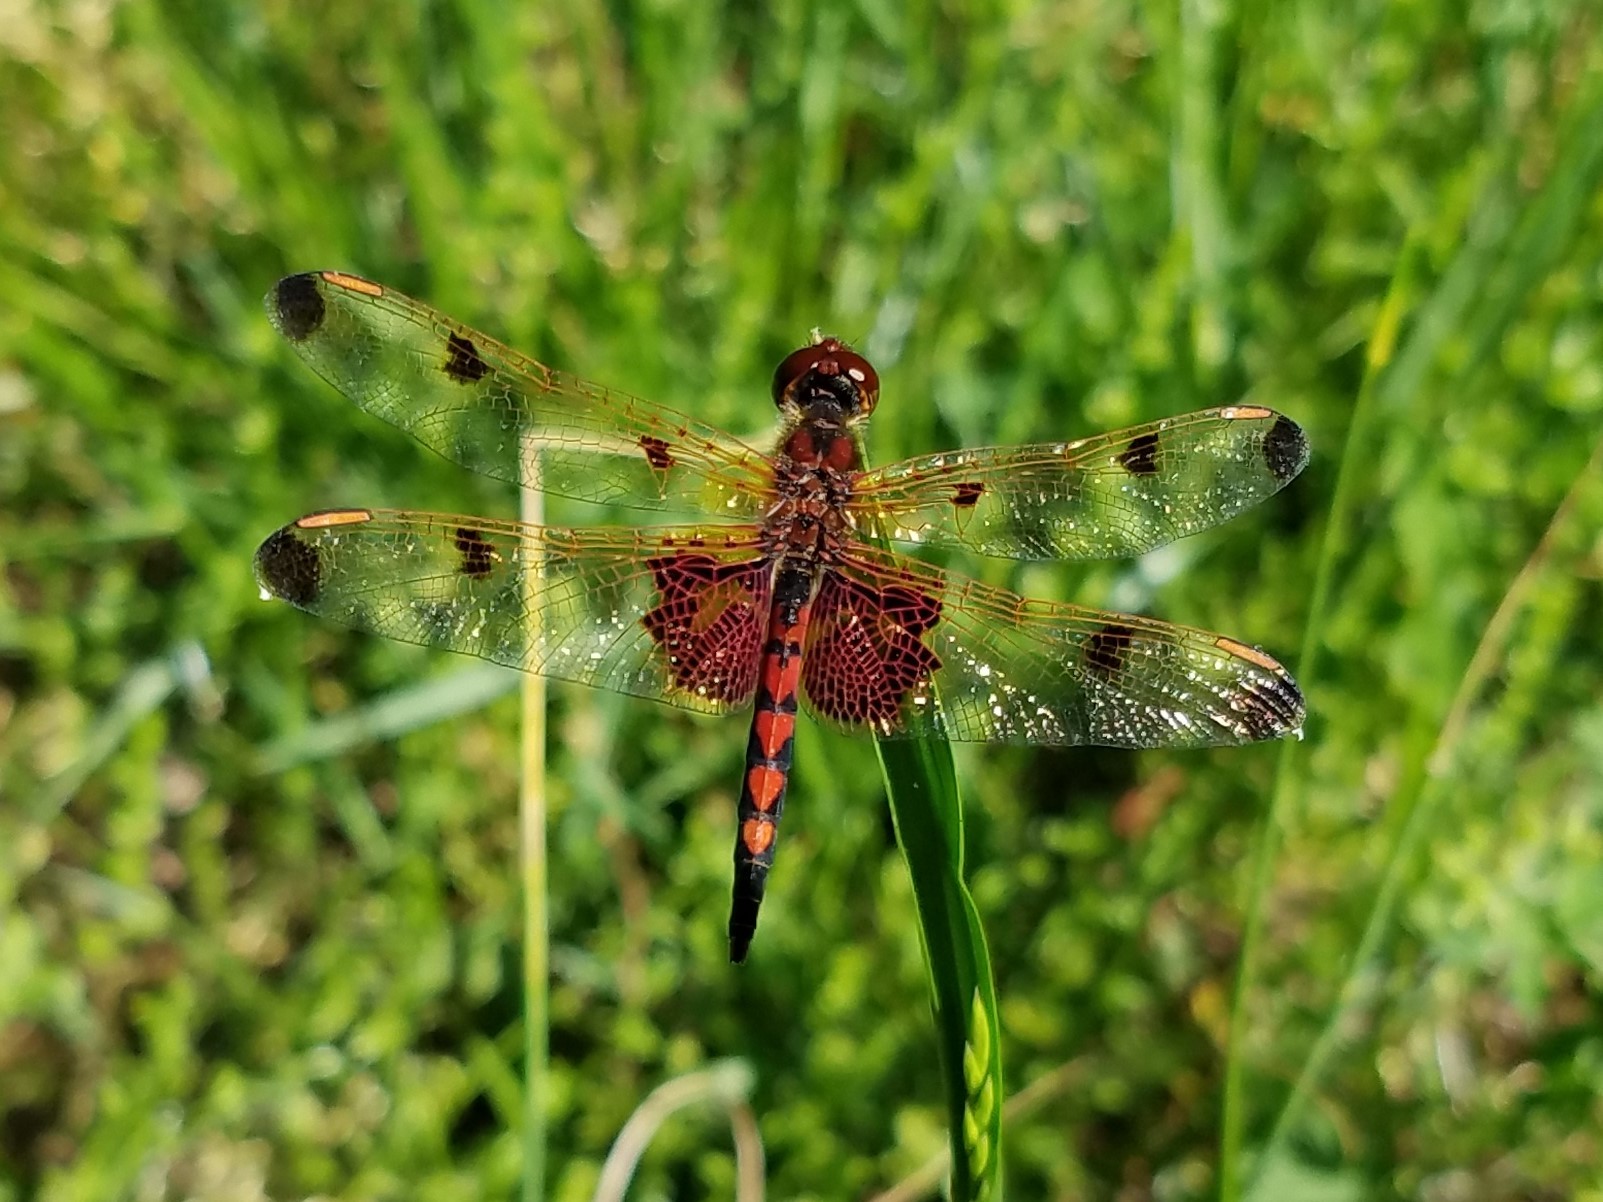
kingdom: Animalia
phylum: Arthropoda
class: Insecta
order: Odonata
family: Libellulidae
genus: Celithemis
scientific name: Celithemis elisa
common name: Calico pennant
